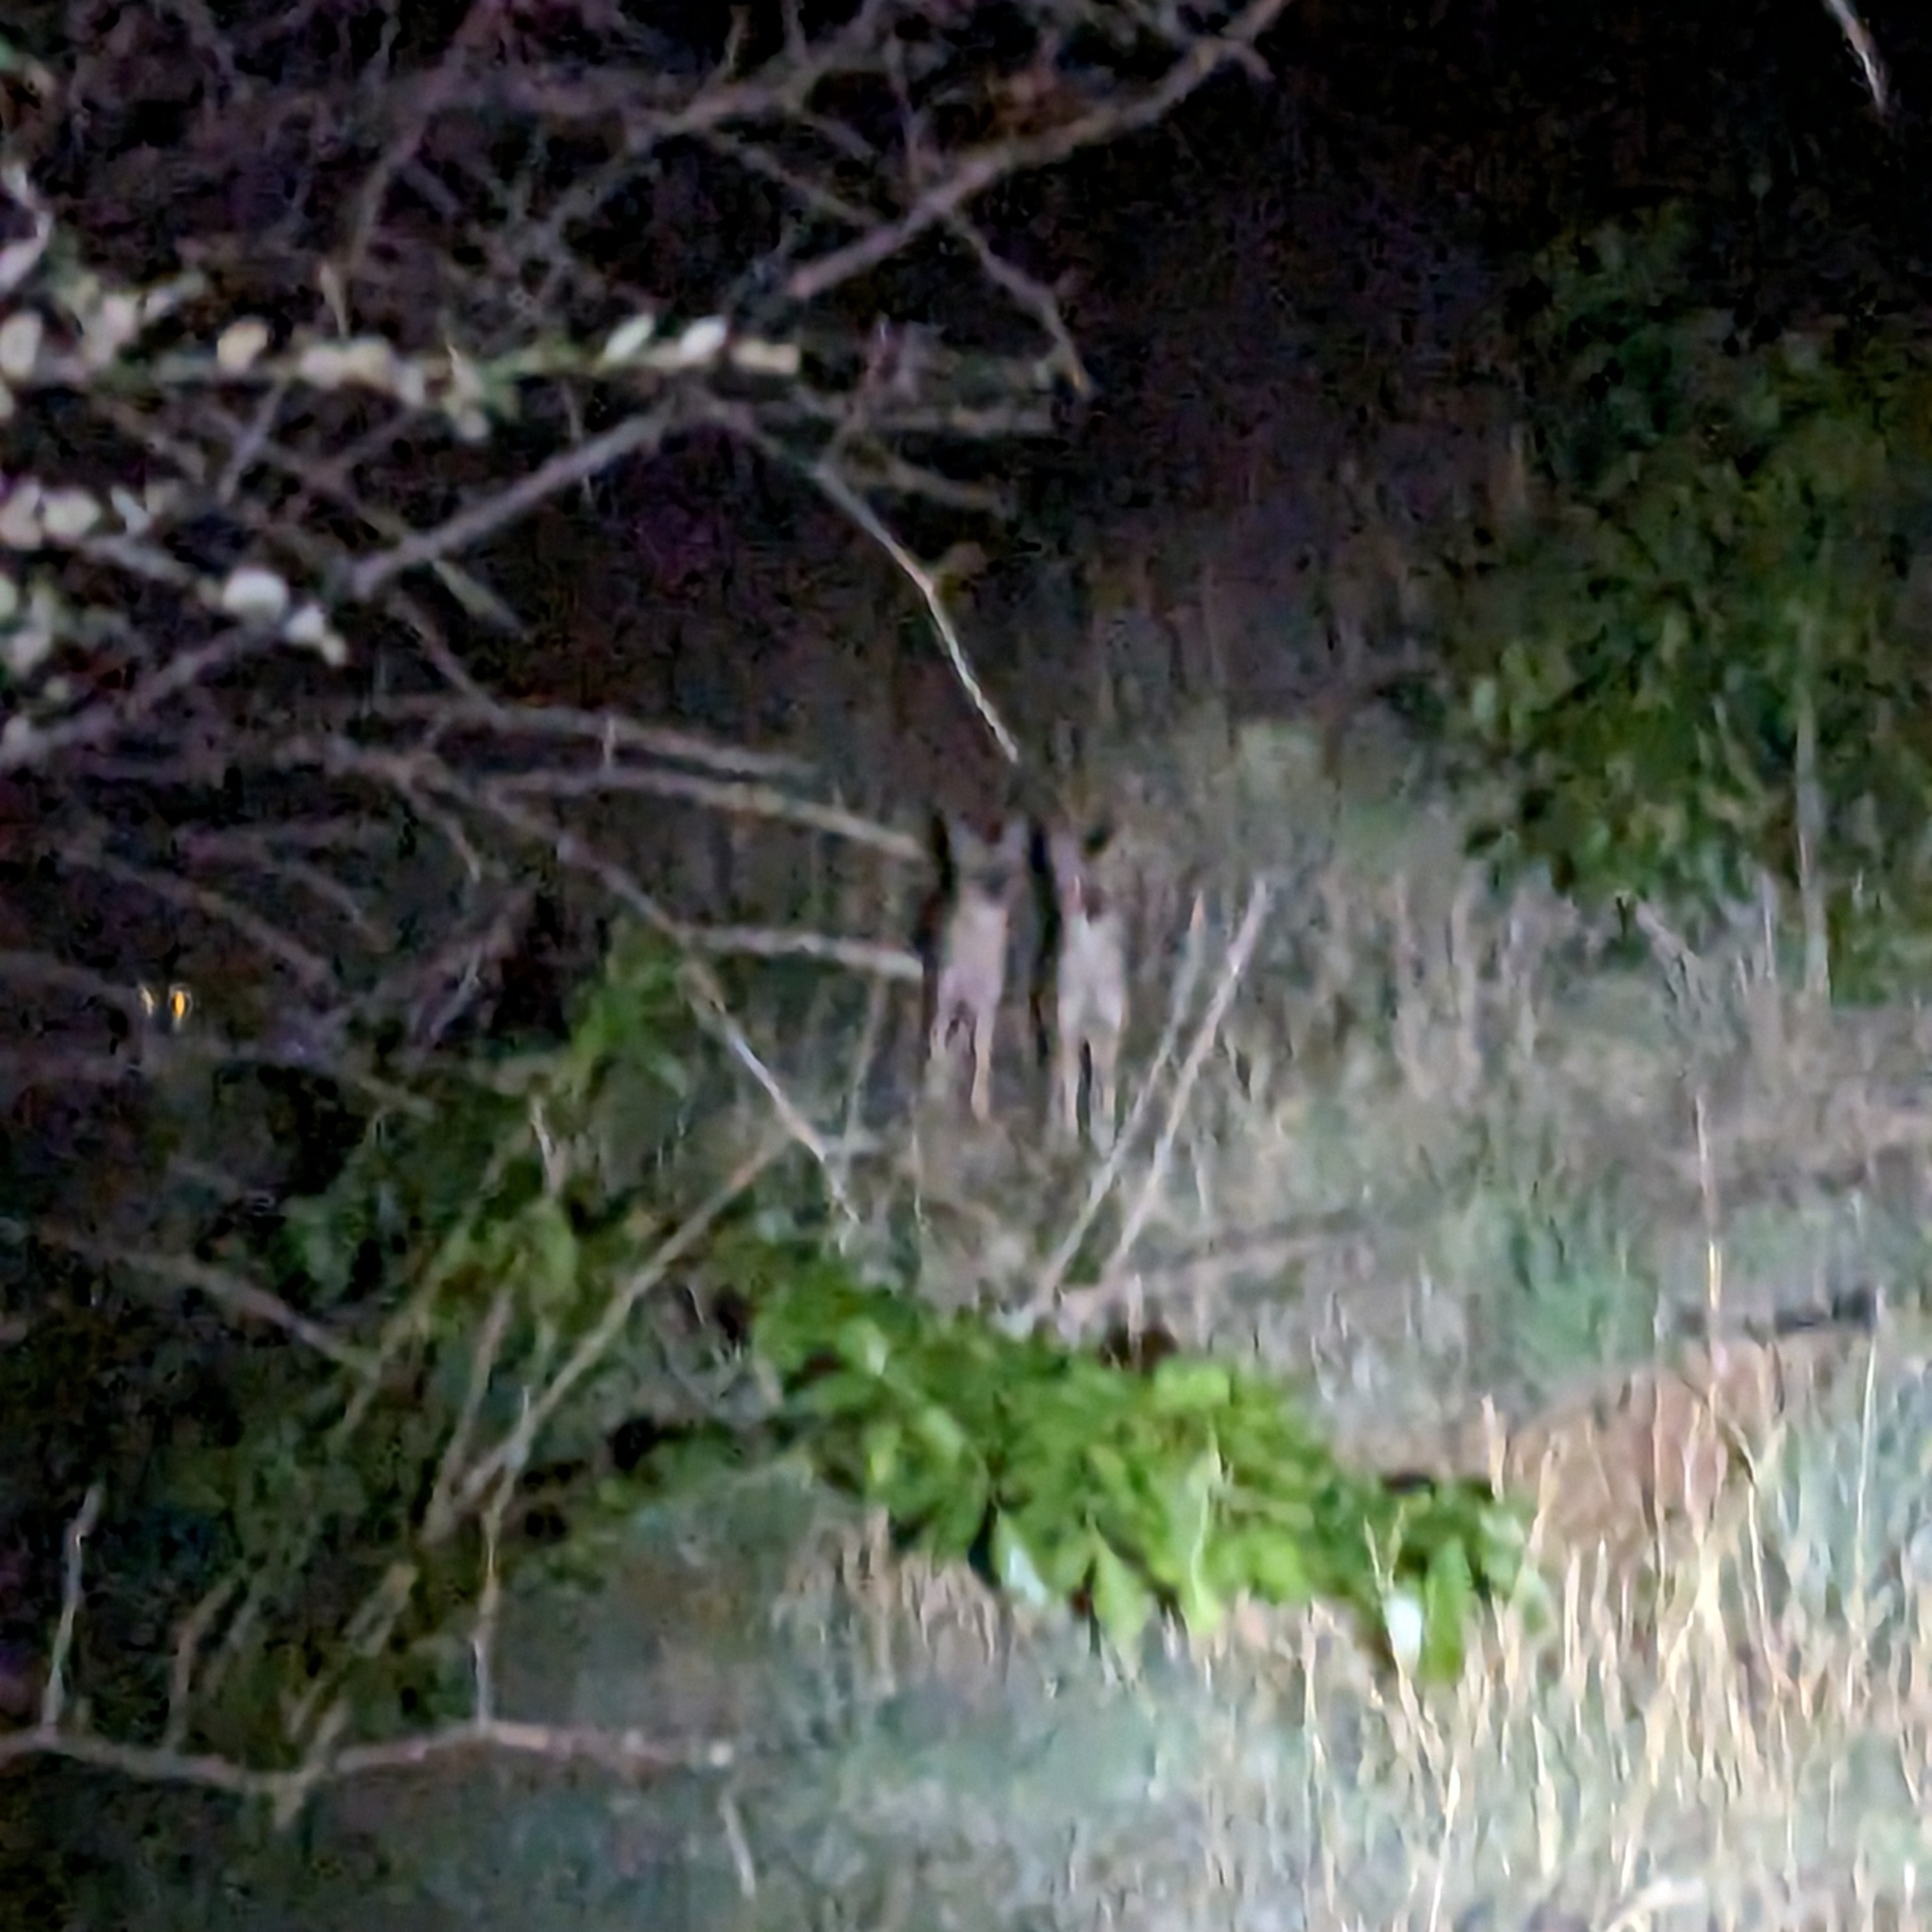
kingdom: Animalia
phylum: Chordata
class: Mammalia
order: Carnivora
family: Canidae
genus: Canis
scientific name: Canis aureus
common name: Golden jackal
